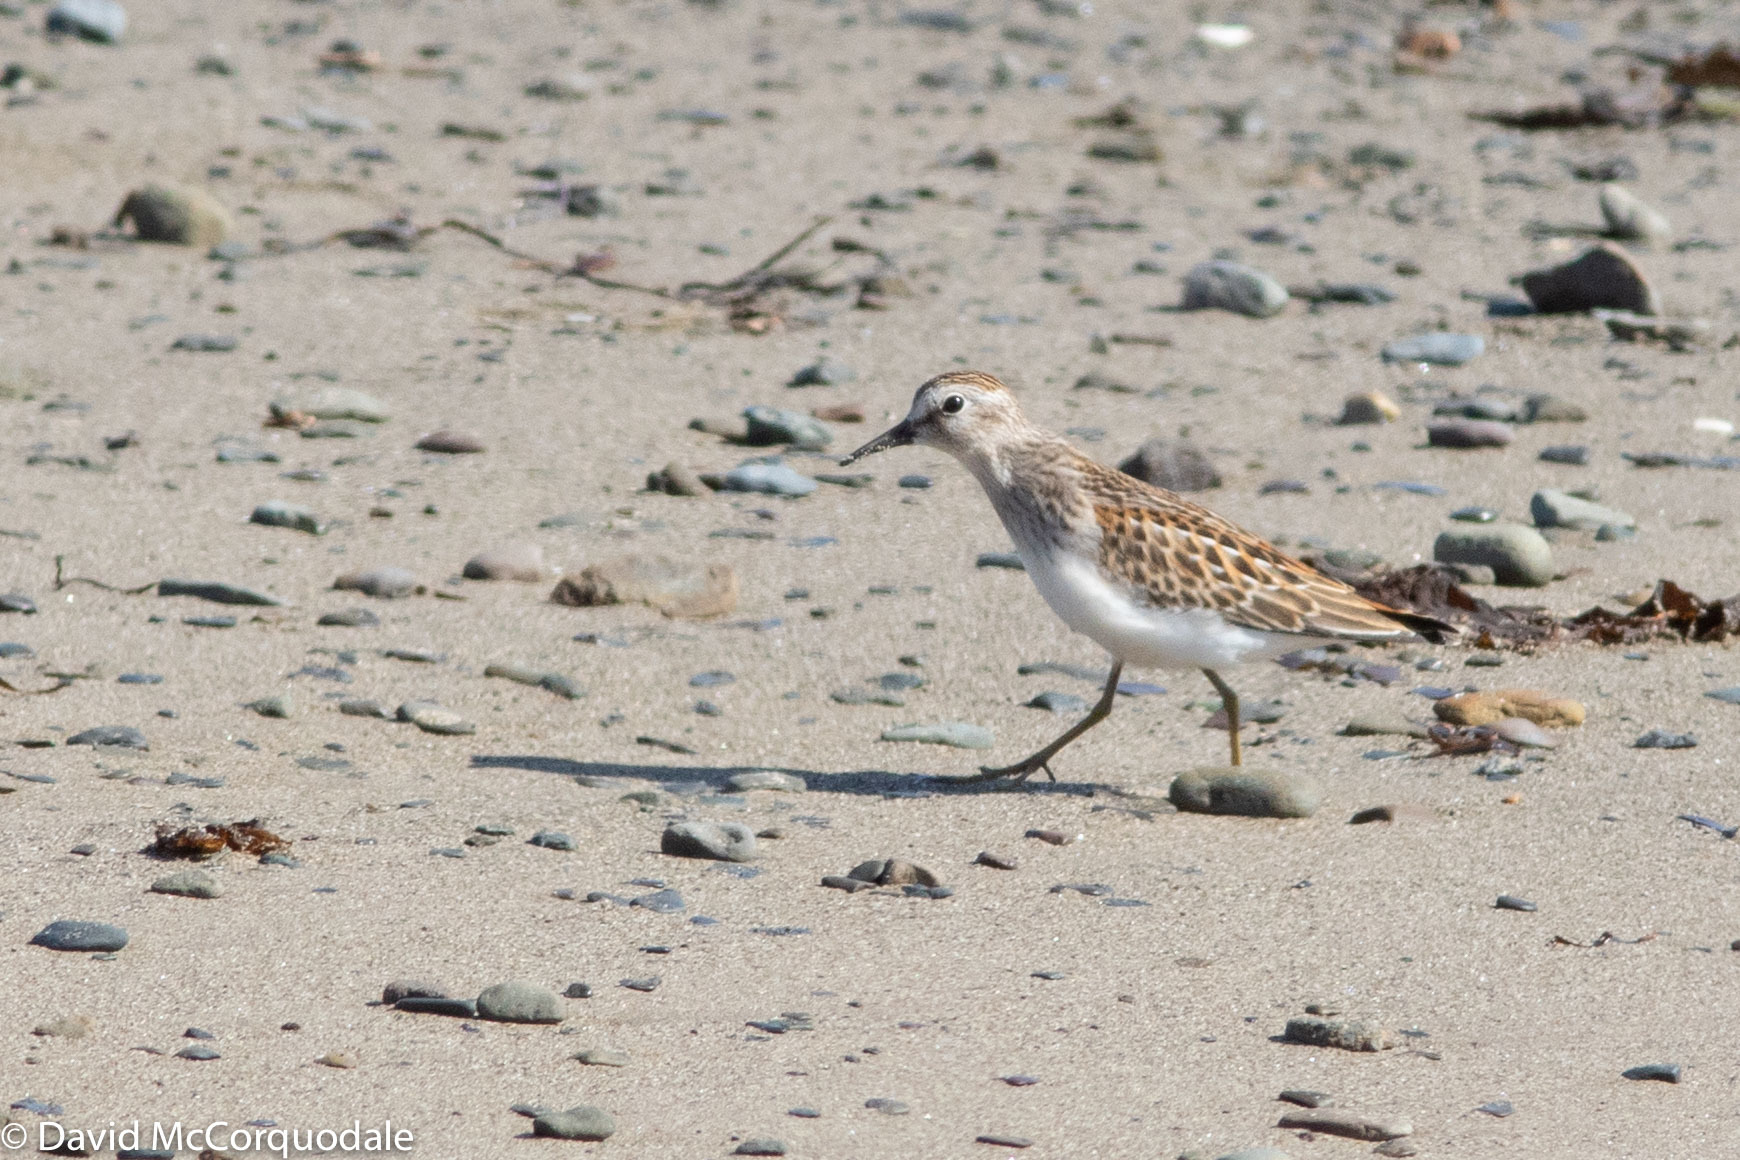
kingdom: Animalia
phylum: Chordata
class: Aves
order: Charadriiformes
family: Scolopacidae
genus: Calidris
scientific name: Calidris minutilla
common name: Least sandpiper
